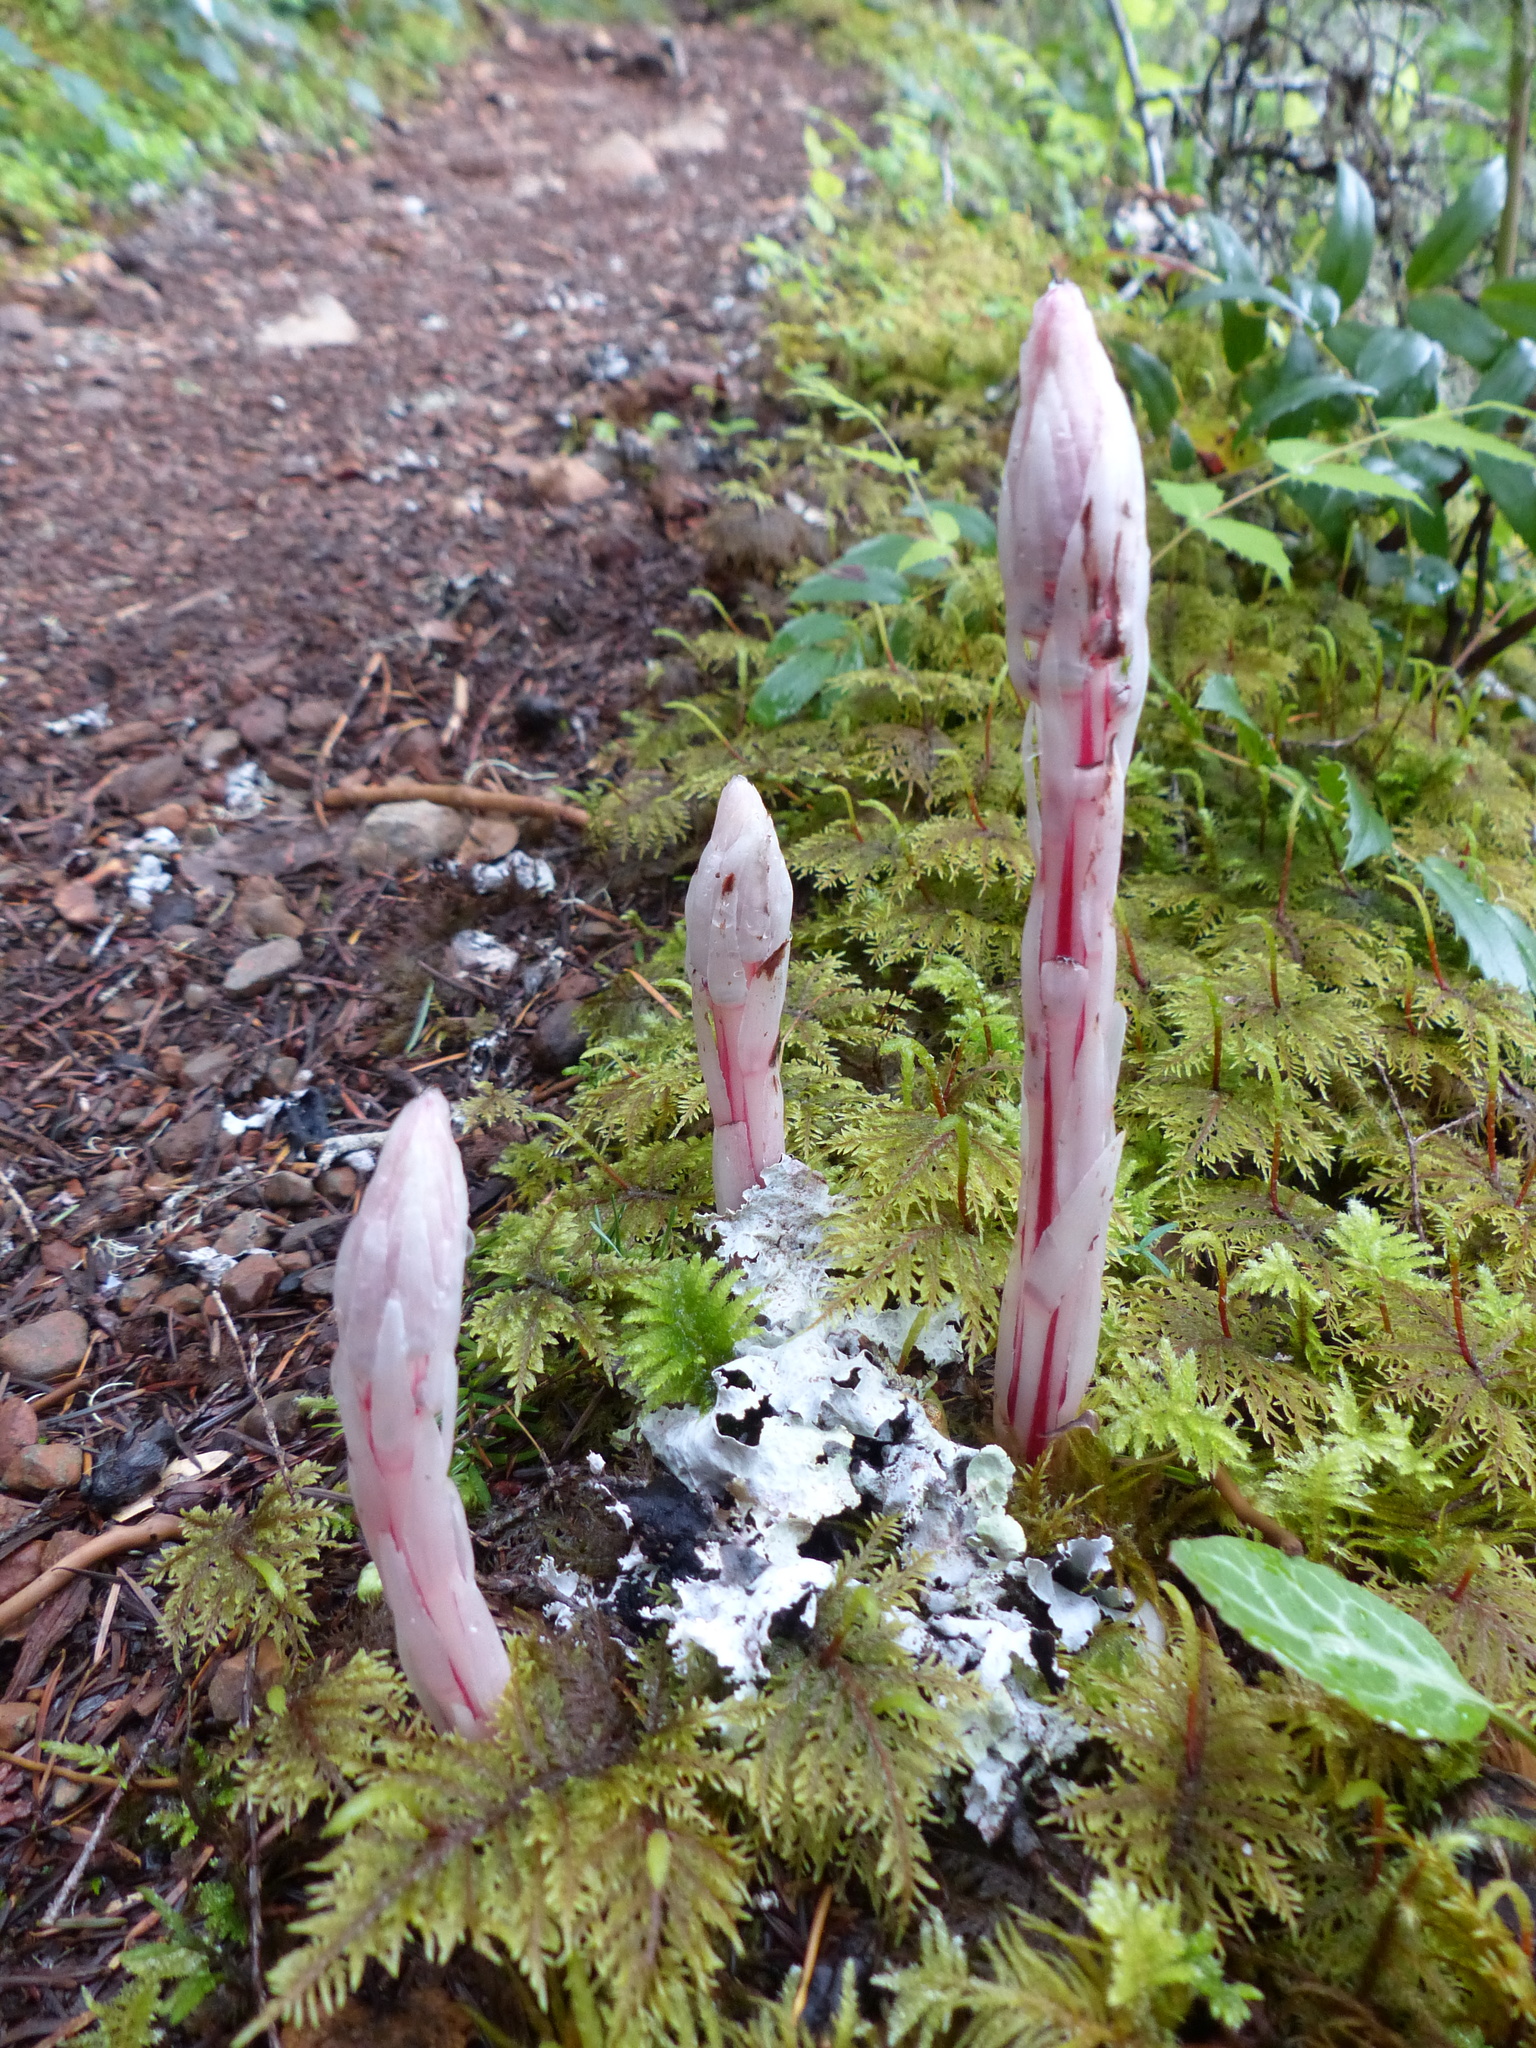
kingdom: Plantae
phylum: Tracheophyta
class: Magnoliopsida
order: Ericales
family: Ericaceae
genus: Allotropa
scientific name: Allotropa virgata
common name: Candy-striped allotropa
